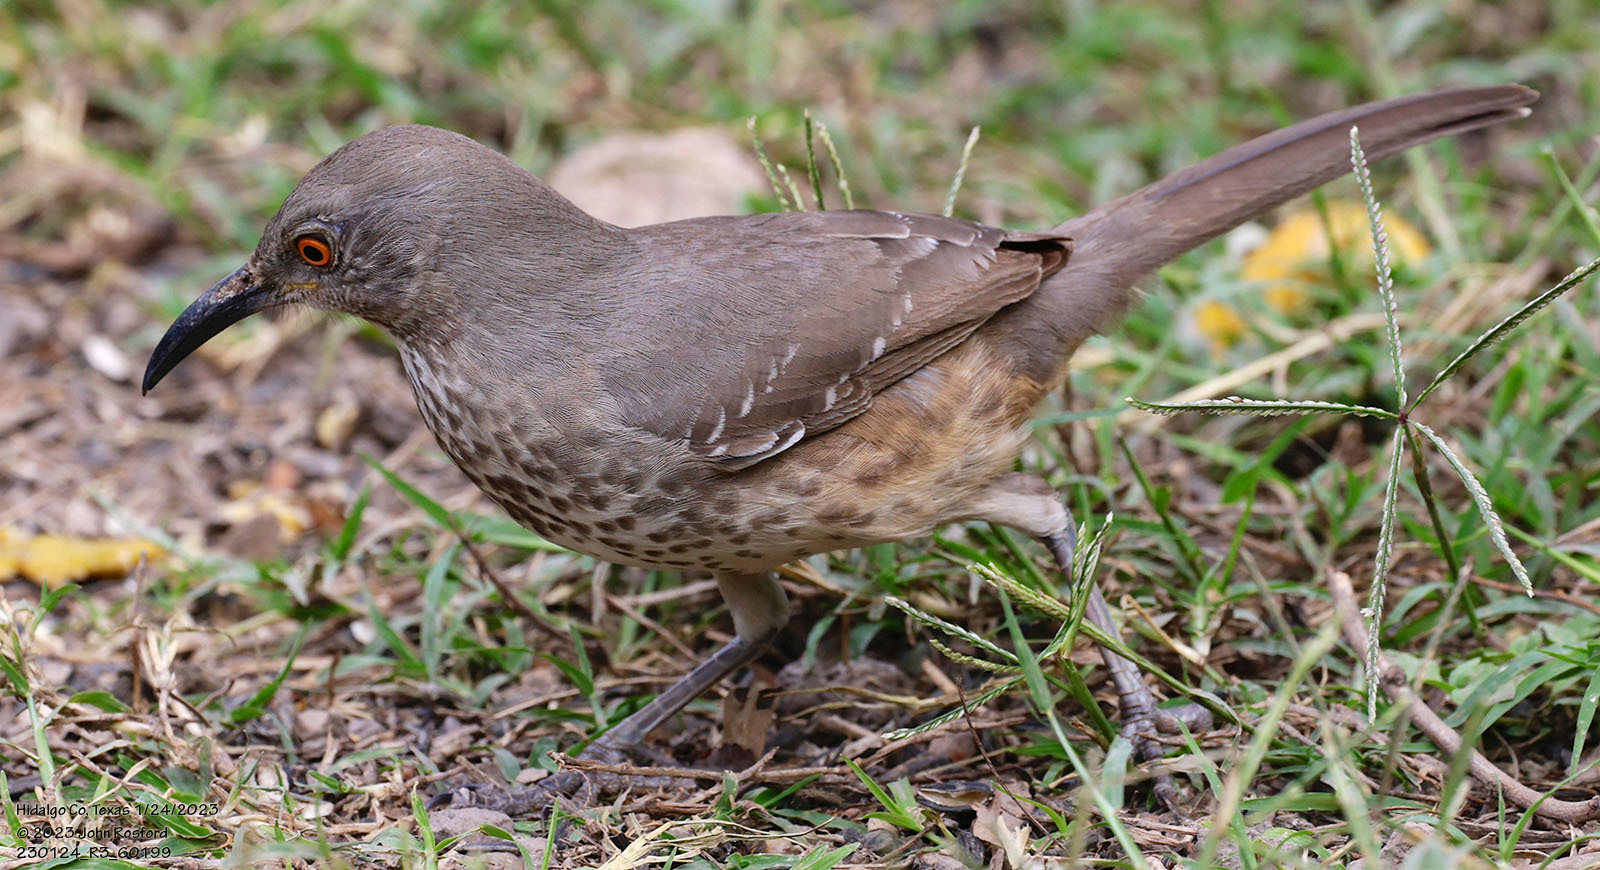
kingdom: Animalia
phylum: Chordata
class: Aves
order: Passeriformes
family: Mimidae
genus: Toxostoma
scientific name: Toxostoma curvirostre
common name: Curve-billed thrasher
